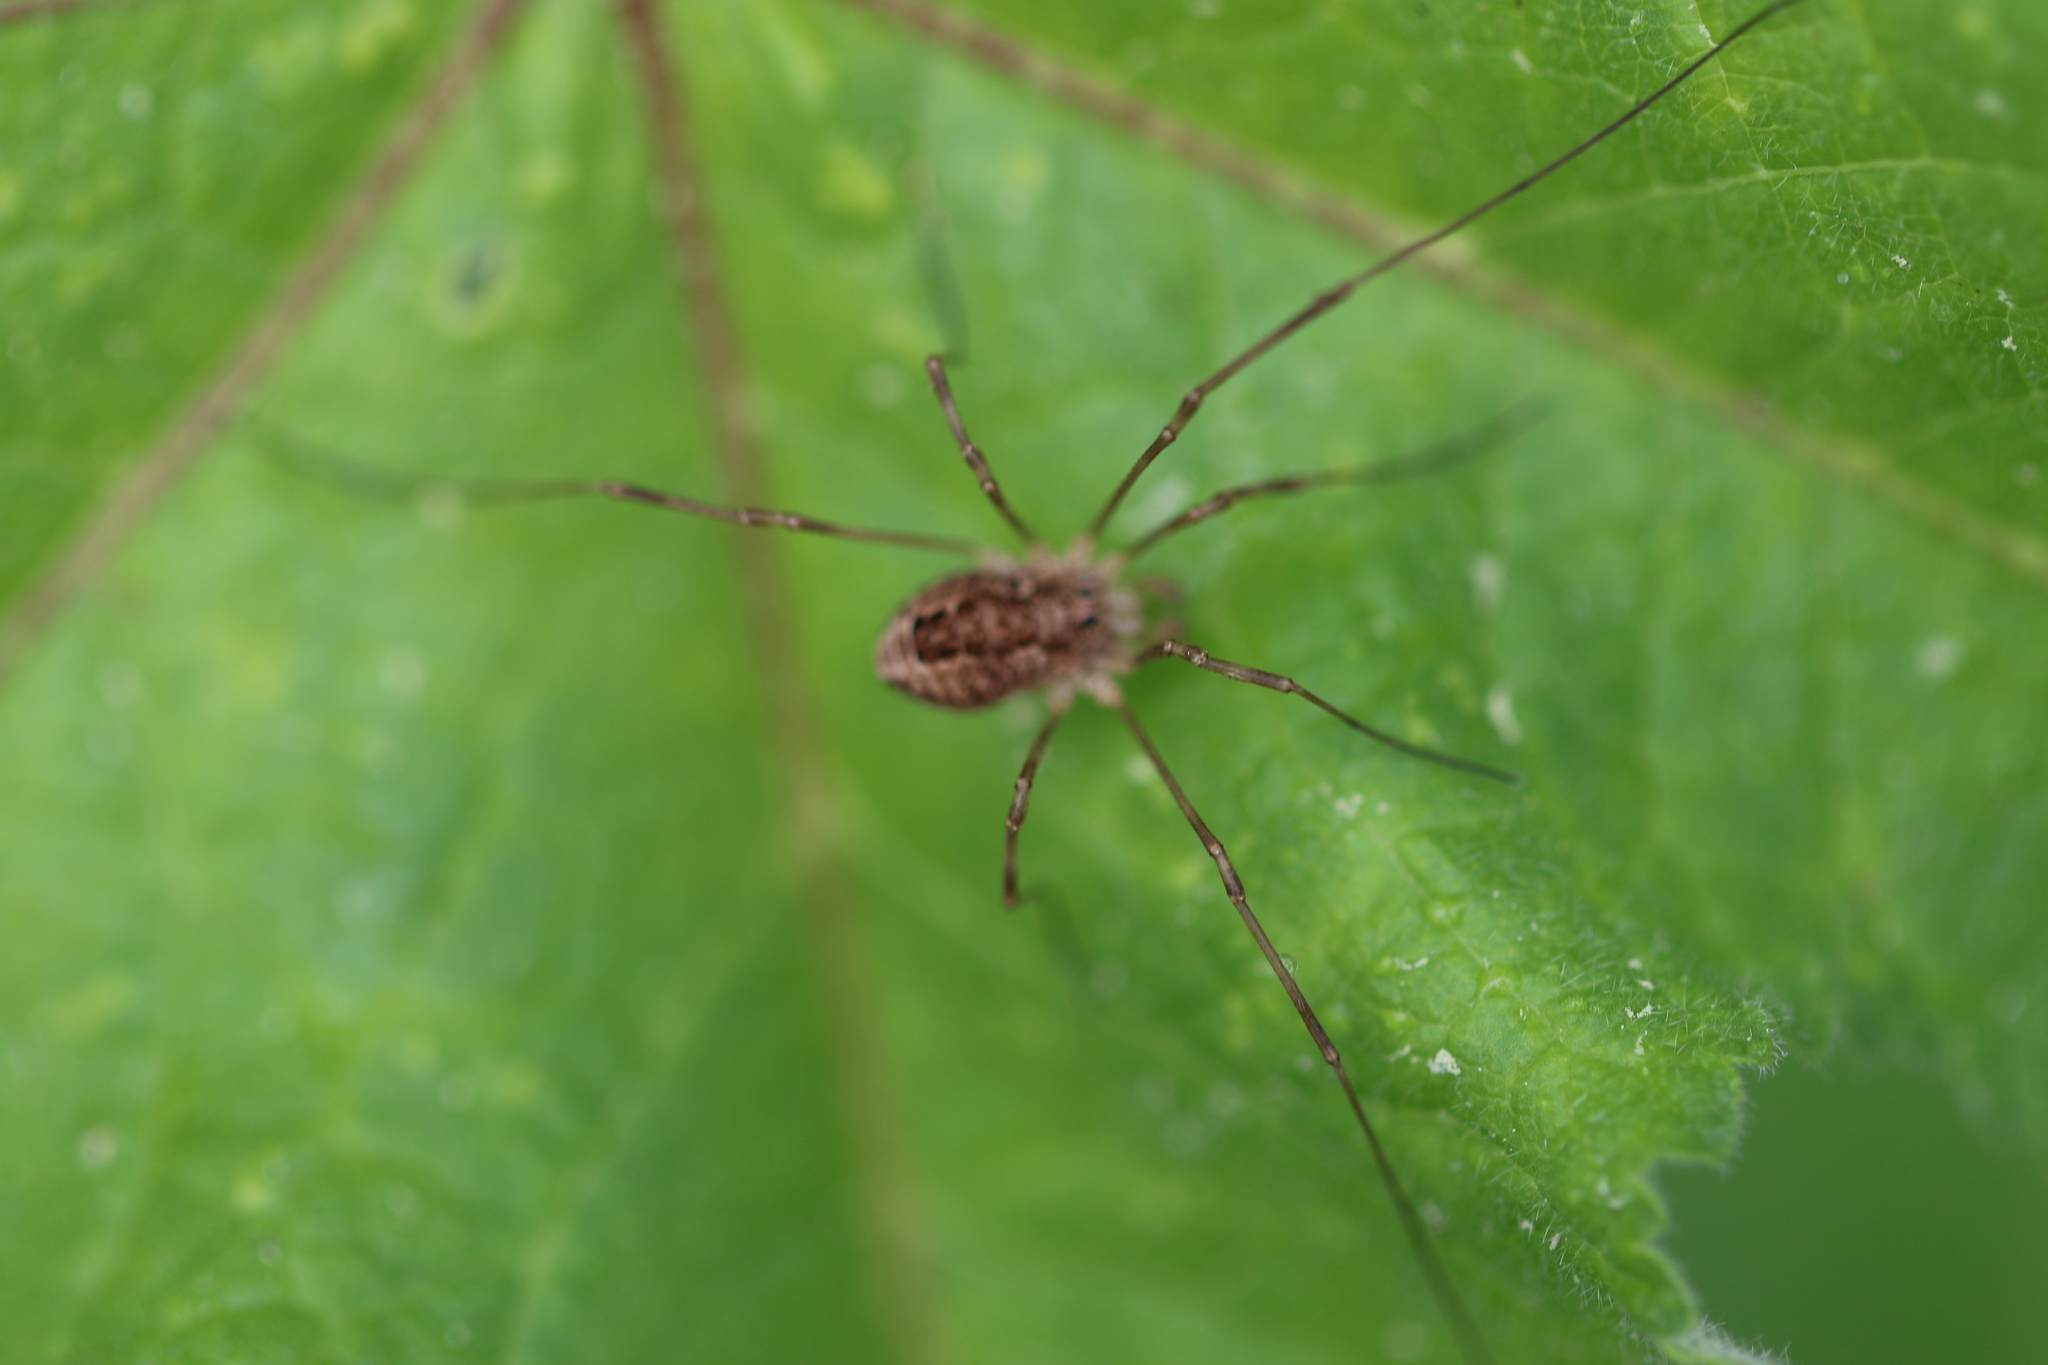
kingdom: Animalia
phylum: Arthropoda
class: Arachnida
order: Opiliones
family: Phalangiidae
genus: Rilaena
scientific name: Rilaena triangularis
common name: Spring harvestman
